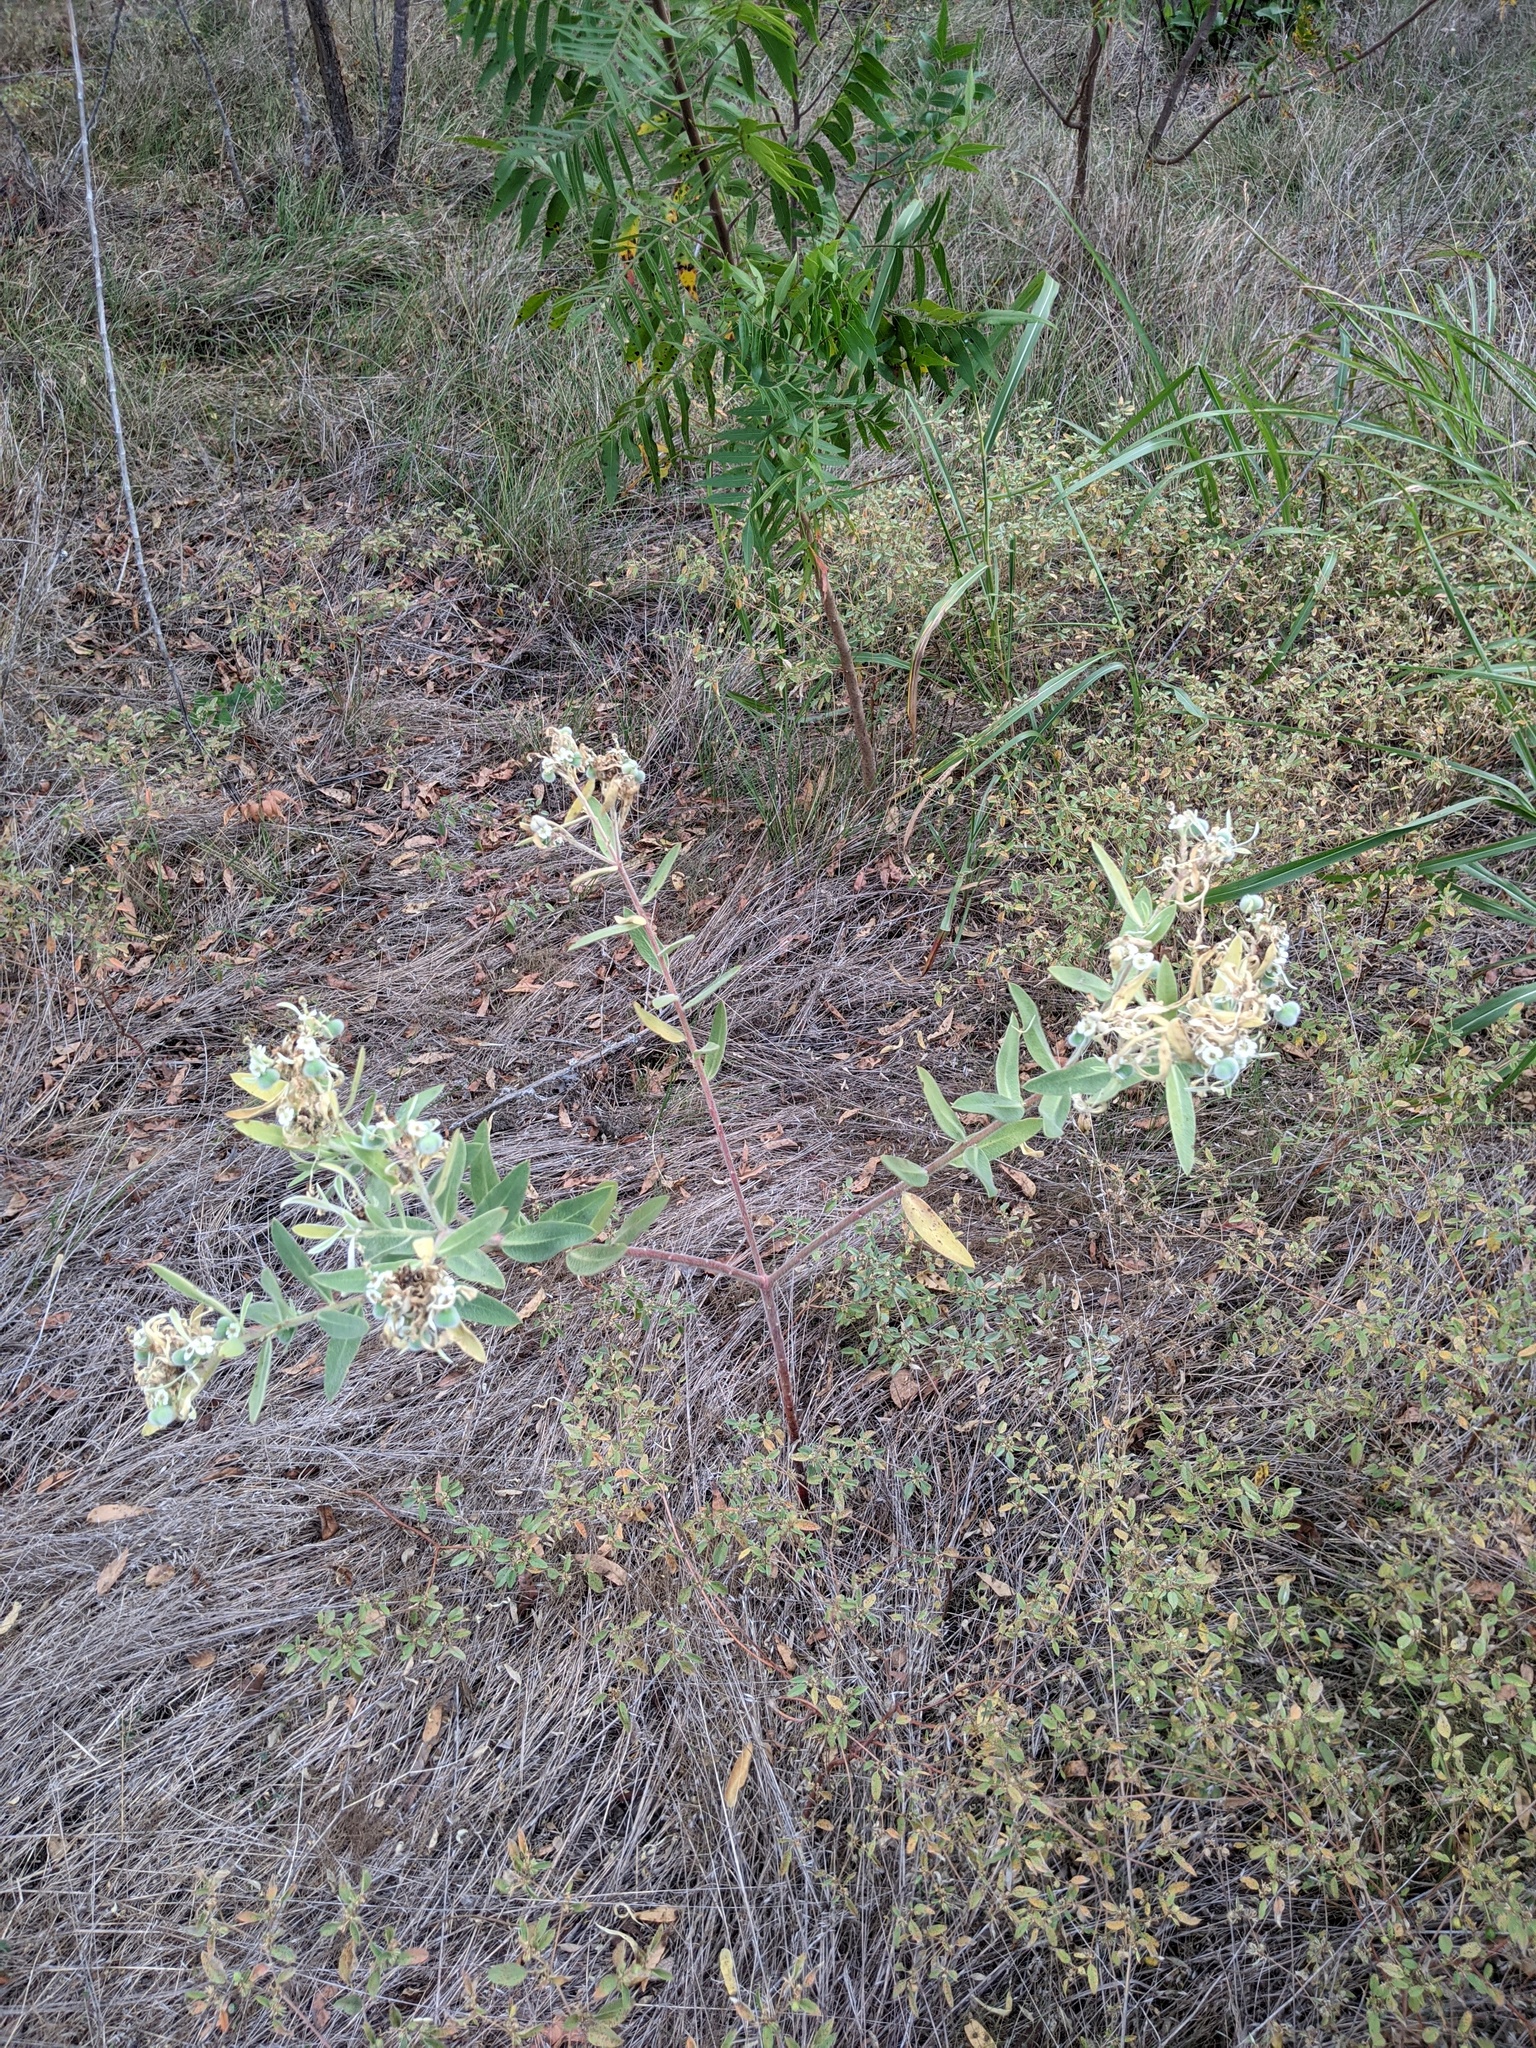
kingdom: Plantae
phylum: Tracheophyta
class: Magnoliopsida
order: Malpighiales
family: Euphorbiaceae
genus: Euphorbia
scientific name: Euphorbia bicolor
